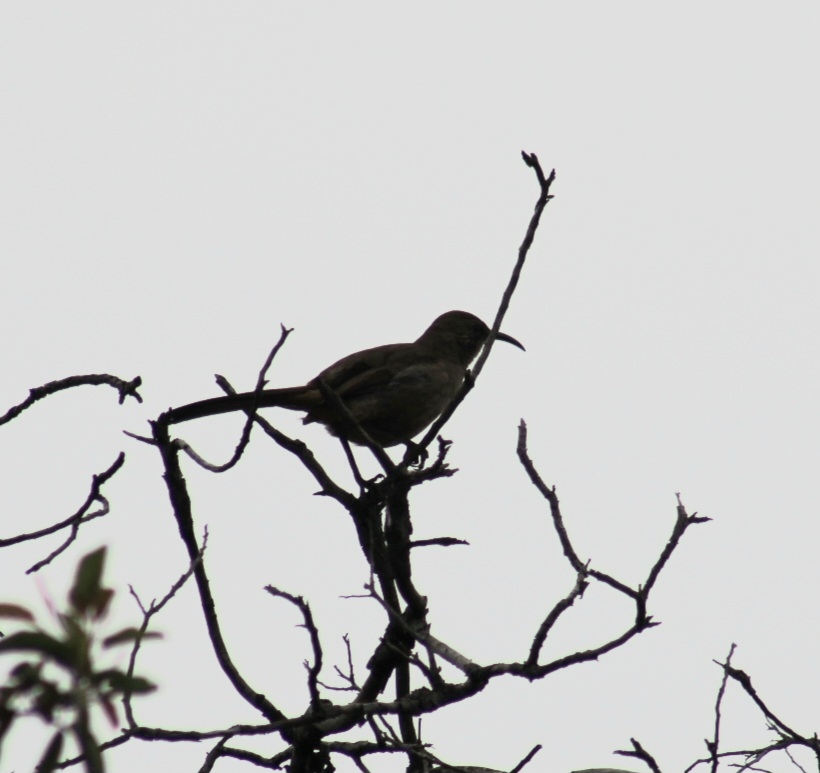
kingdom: Animalia
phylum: Chordata
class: Aves
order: Passeriformes
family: Mimidae
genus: Toxostoma
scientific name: Toxostoma redivivum
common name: California thrasher
